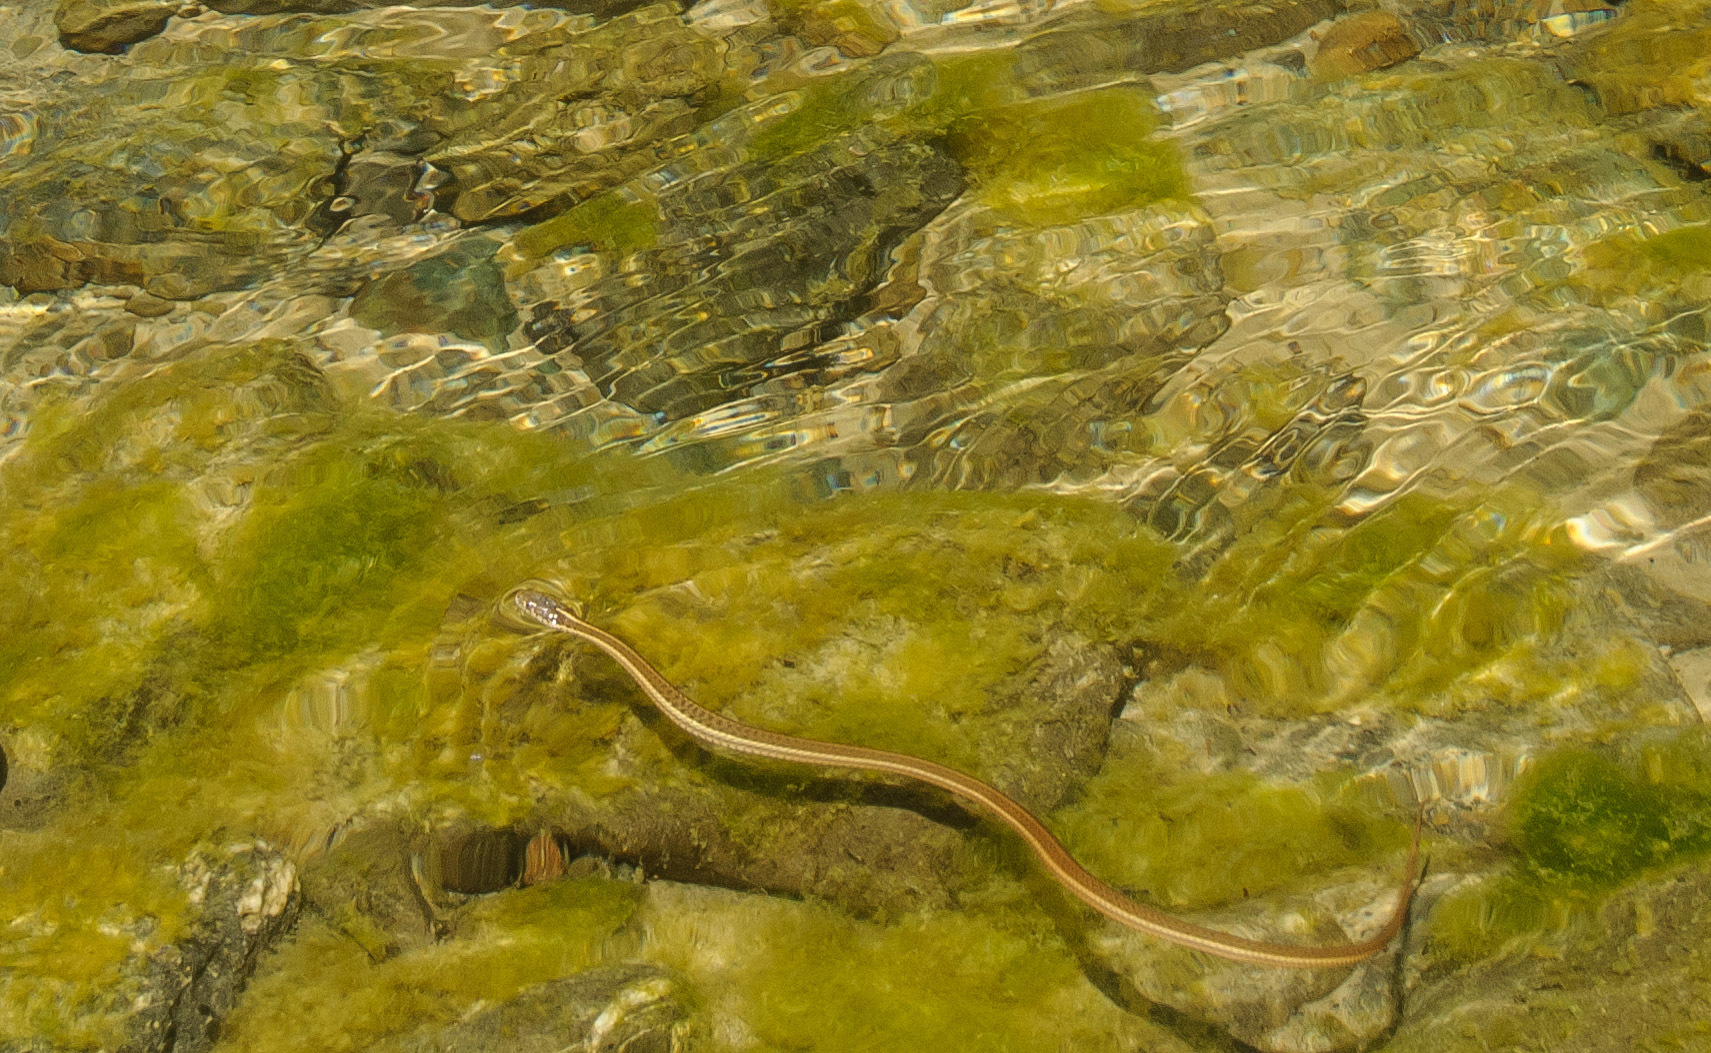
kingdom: Animalia
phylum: Chordata
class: Squamata
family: Colubridae
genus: Thamnophis
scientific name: Thamnophis atratus
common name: Pacific coast aquatic garter snake
